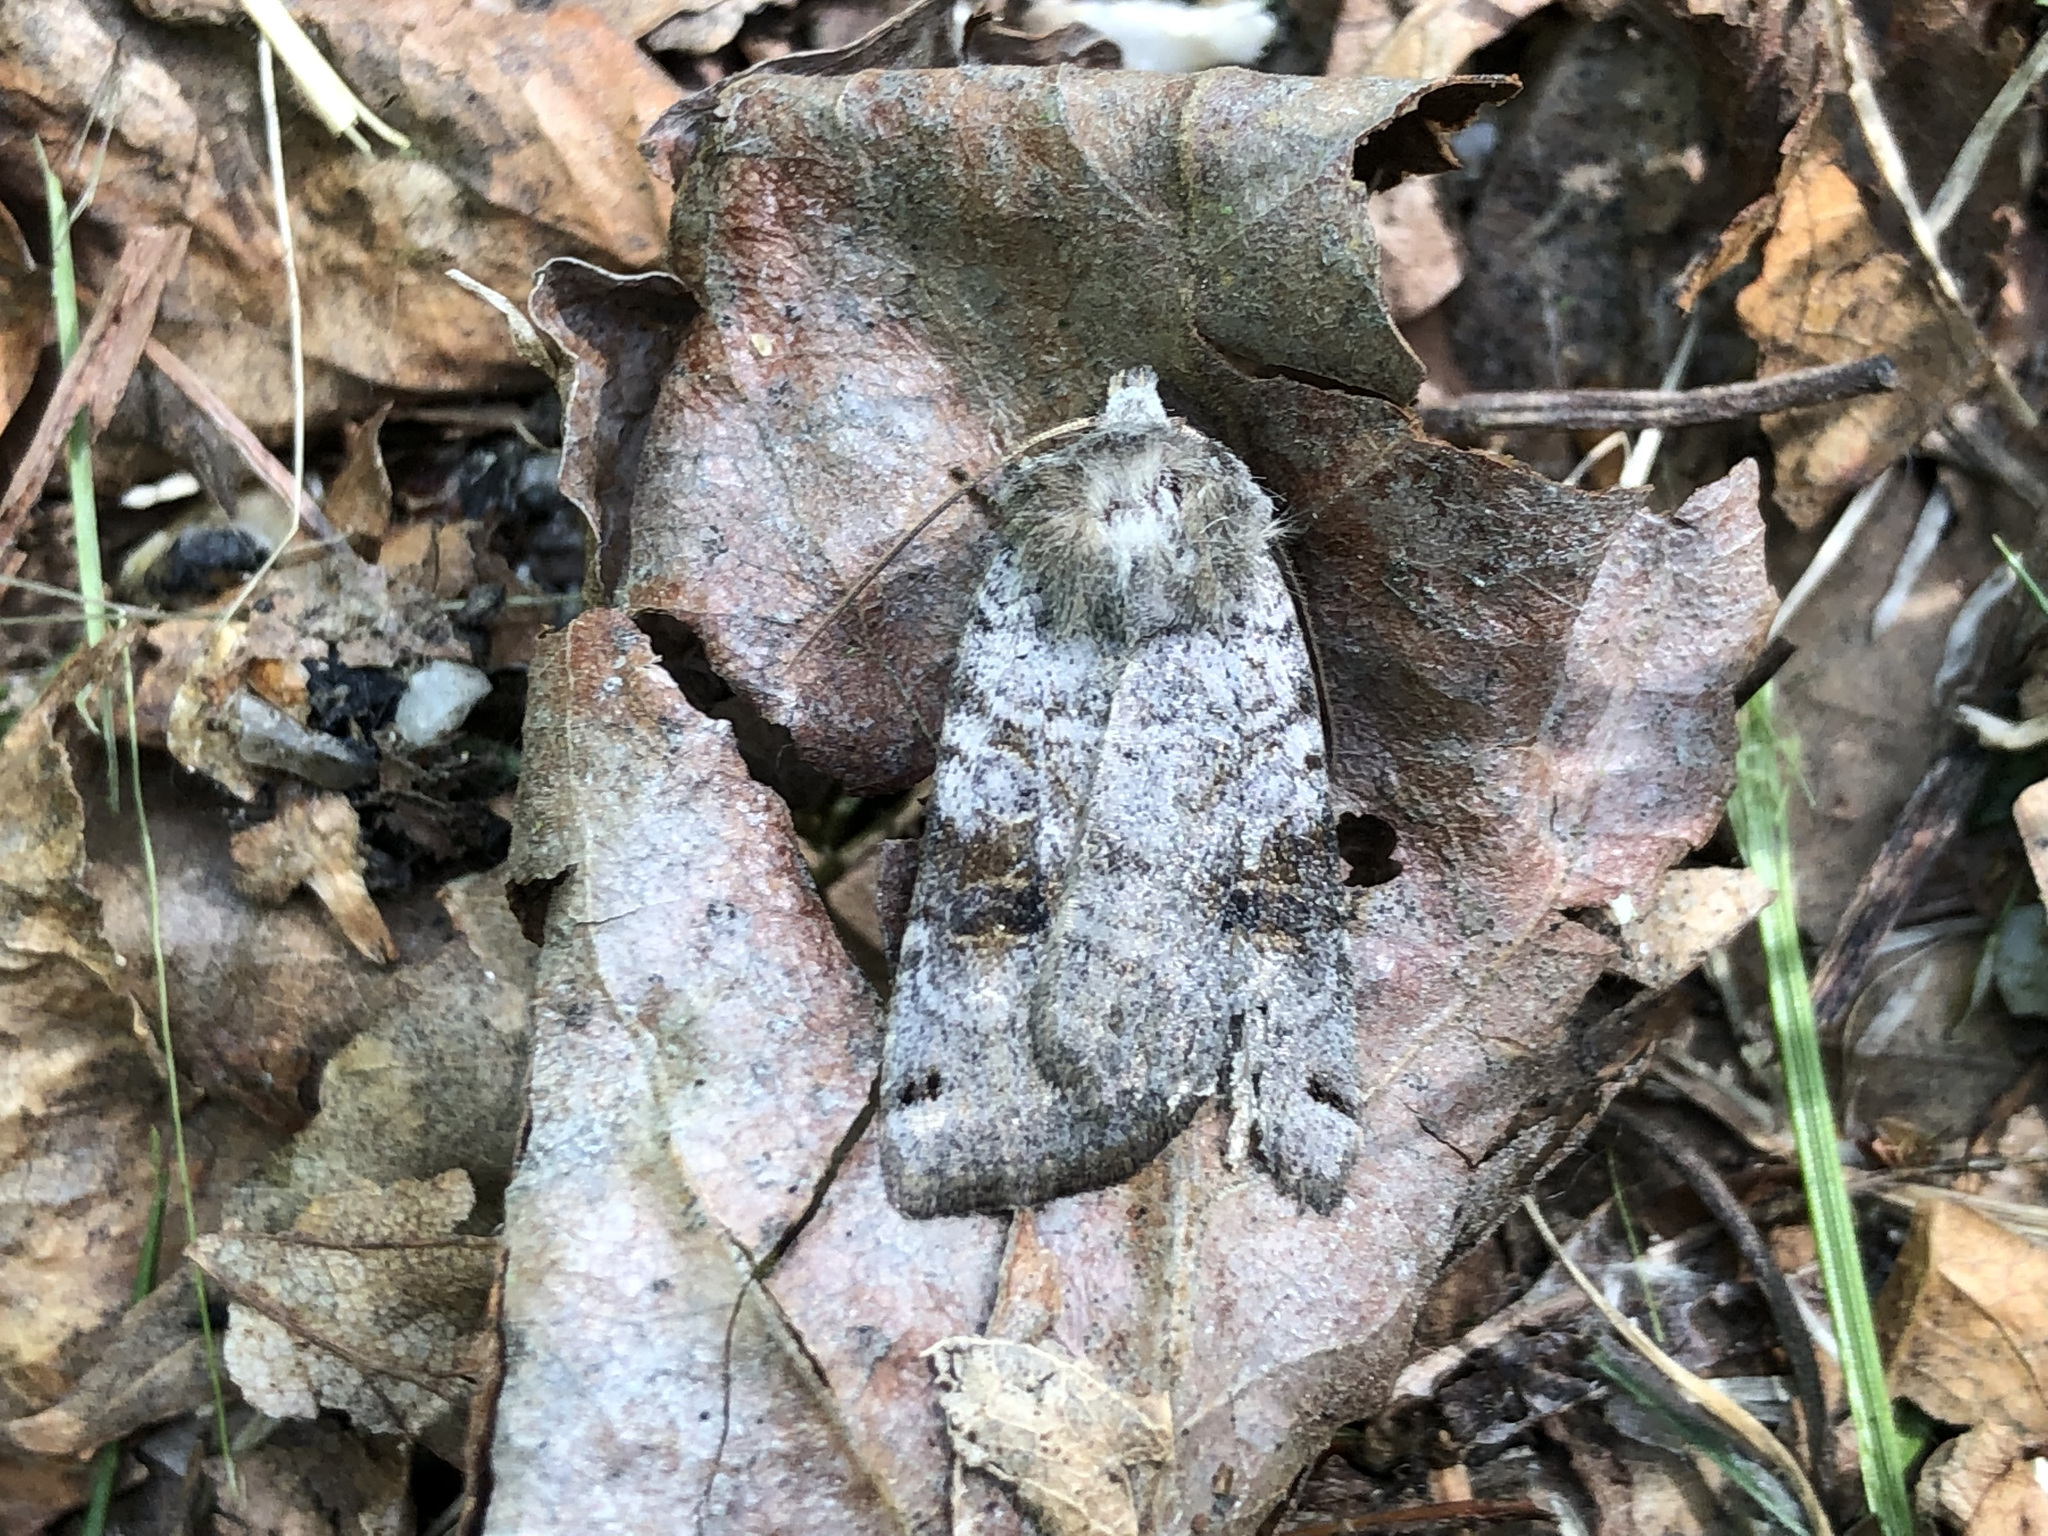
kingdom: Animalia
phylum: Arthropoda
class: Insecta
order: Lepidoptera
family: Noctuidae
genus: Xestia
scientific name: Xestia smithii
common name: Smith's dart
